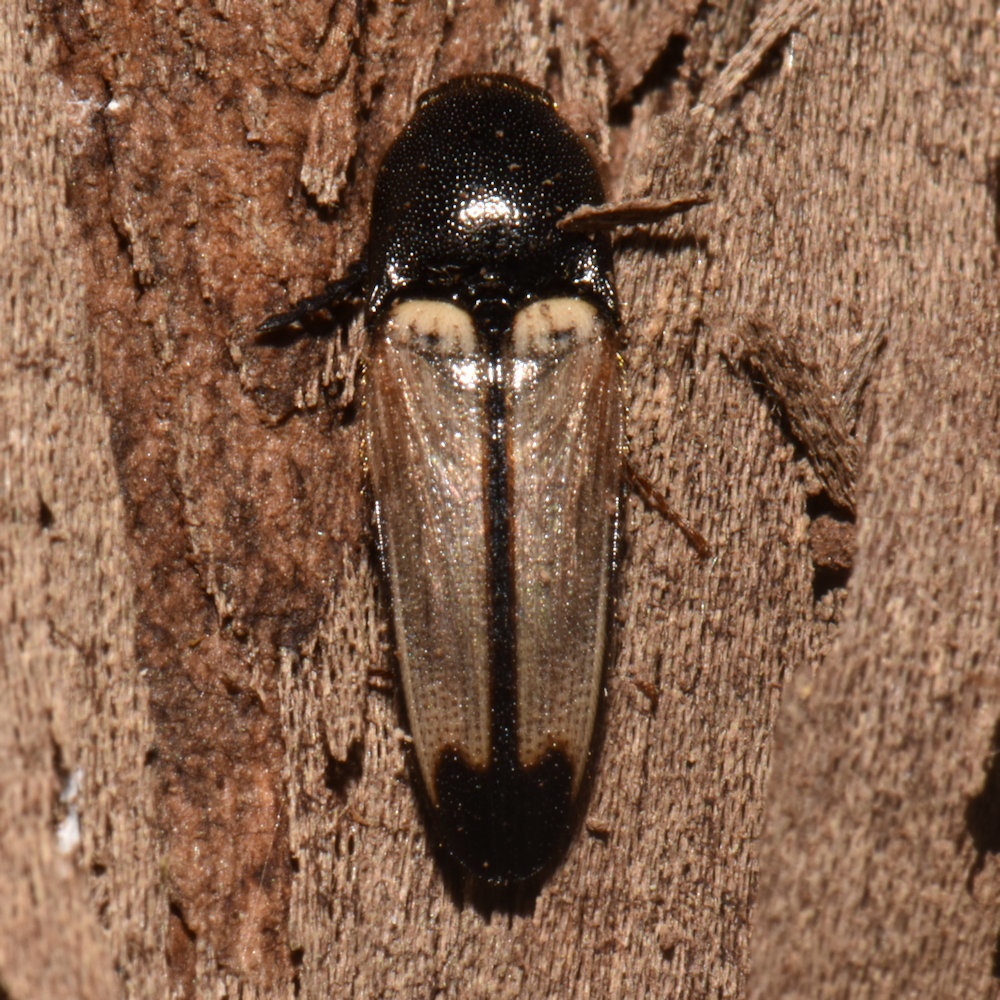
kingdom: Animalia
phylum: Arthropoda
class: Insecta
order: Coleoptera
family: Elateridae
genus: Ampedus
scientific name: Ampedus linteus
